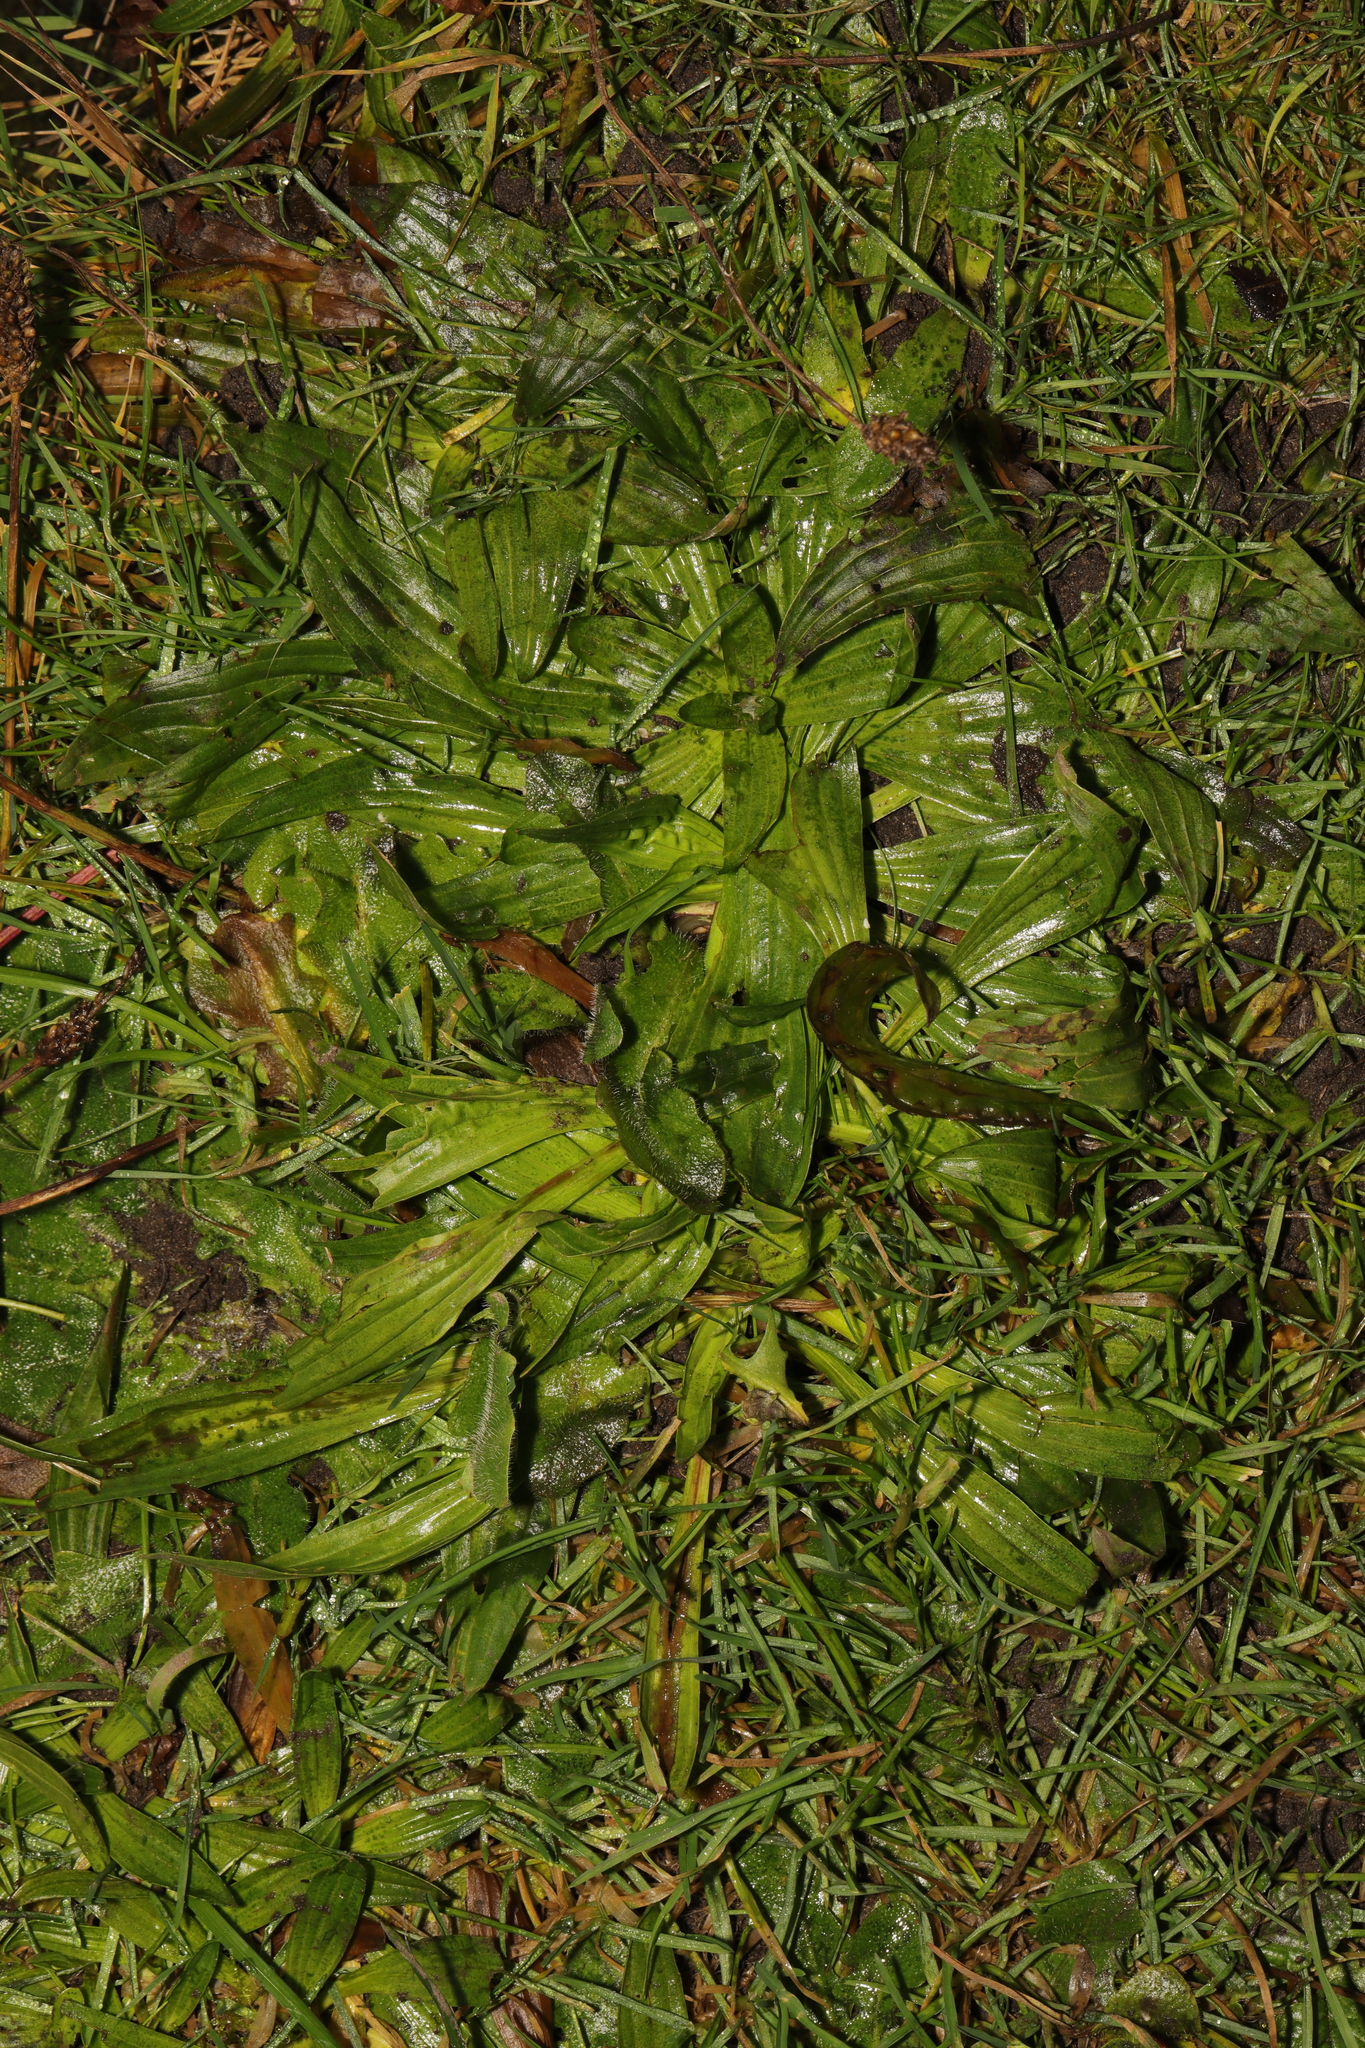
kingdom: Plantae
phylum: Tracheophyta
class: Magnoliopsida
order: Lamiales
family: Plantaginaceae
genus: Plantago
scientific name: Plantago lanceolata
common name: Ribwort plantain
